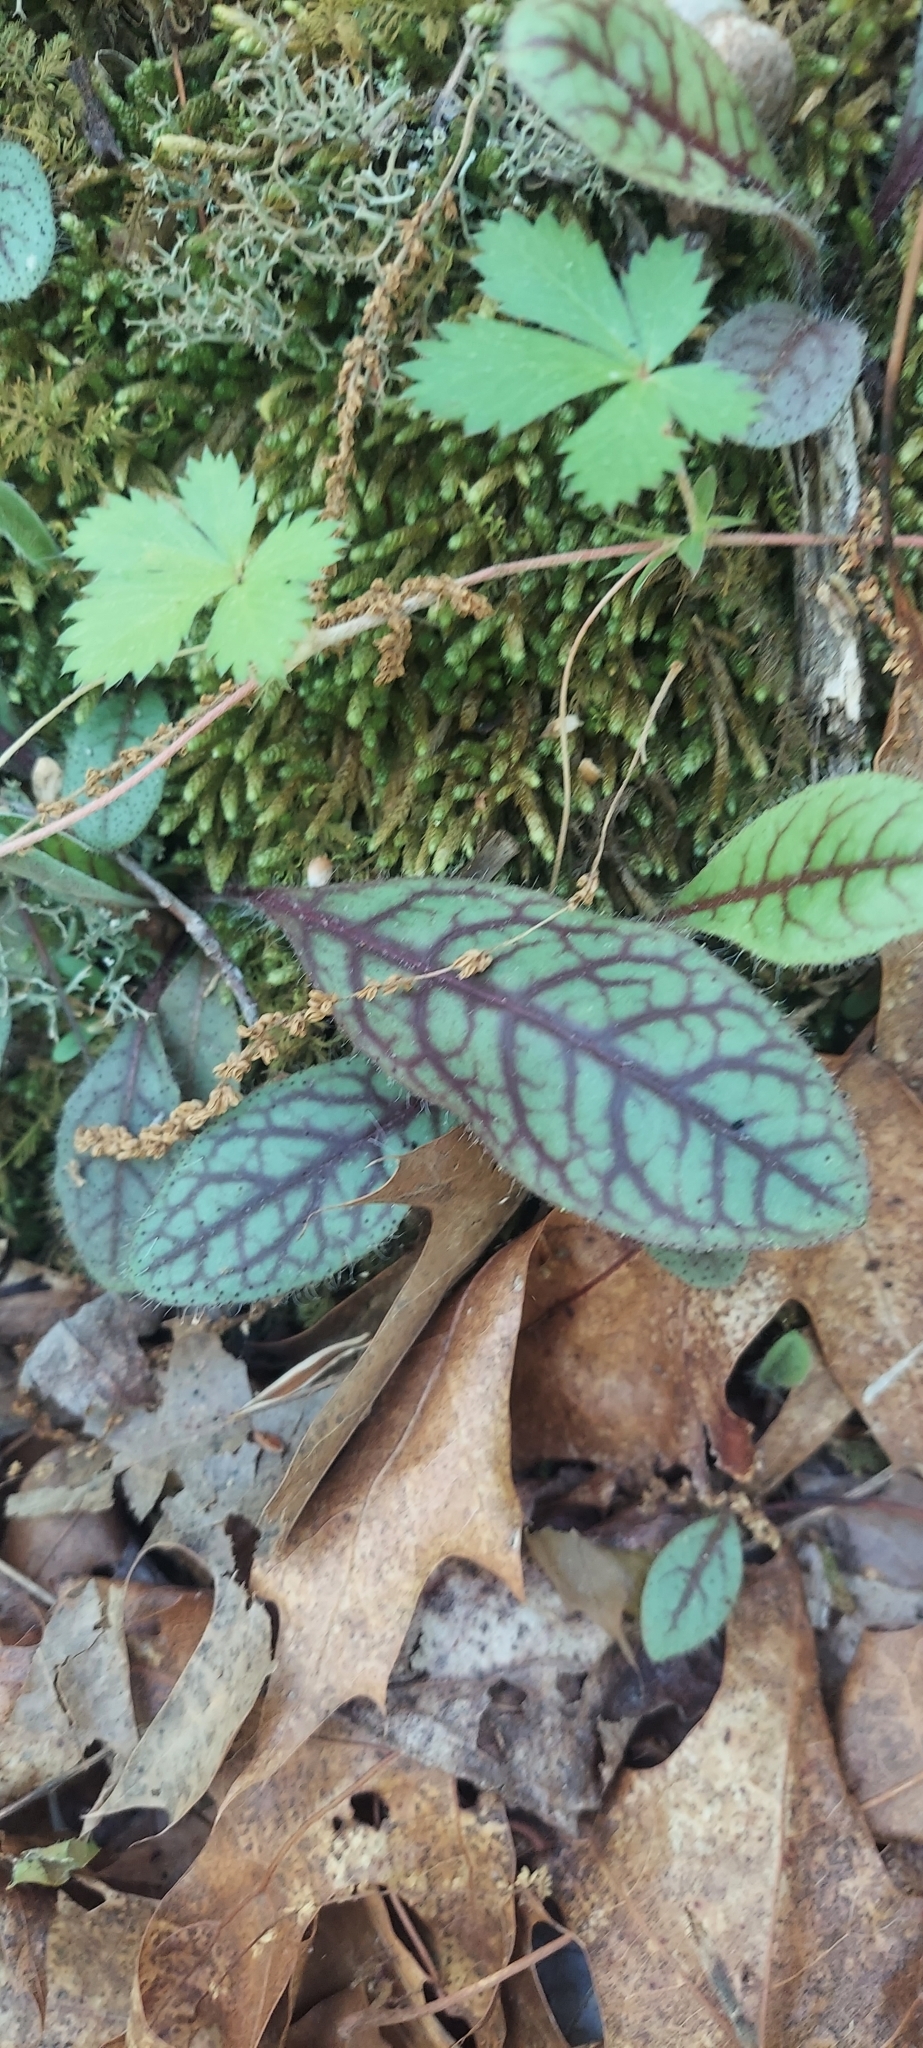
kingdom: Plantae
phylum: Tracheophyta
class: Magnoliopsida
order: Asterales
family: Asteraceae
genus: Hieracium
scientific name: Hieracium venosum
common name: Rattlesnake hawkweed
